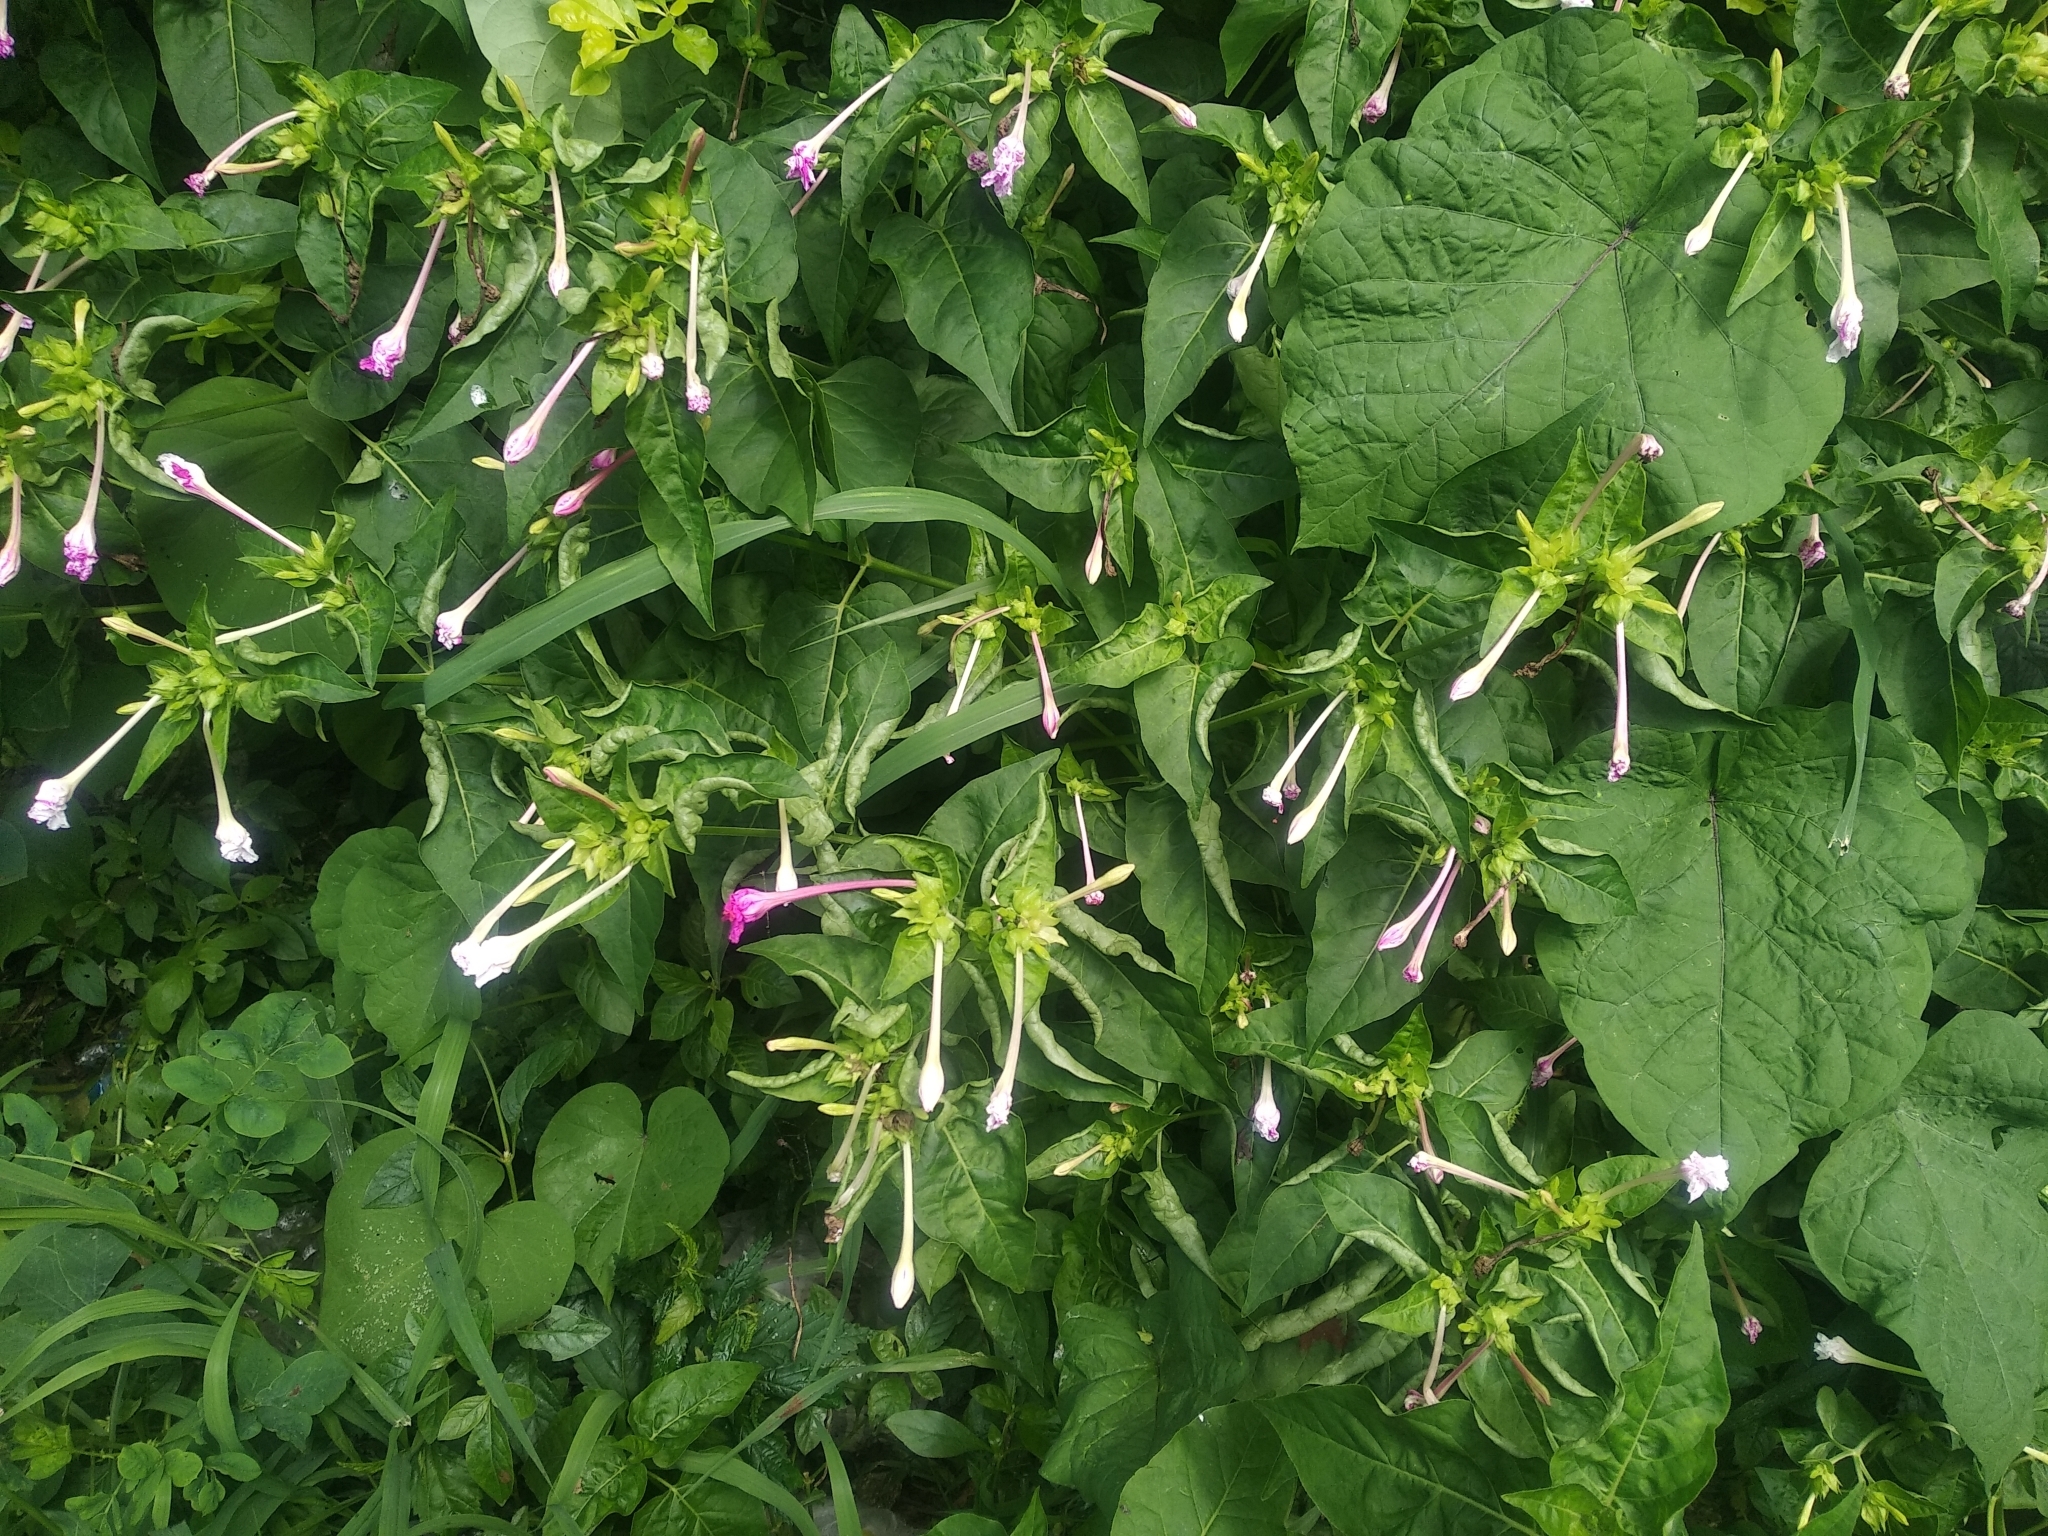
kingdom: Plantae
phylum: Tracheophyta
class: Magnoliopsida
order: Caryophyllales
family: Nyctaginaceae
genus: Mirabilis
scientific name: Mirabilis jalapa
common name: Marvel-of-peru
